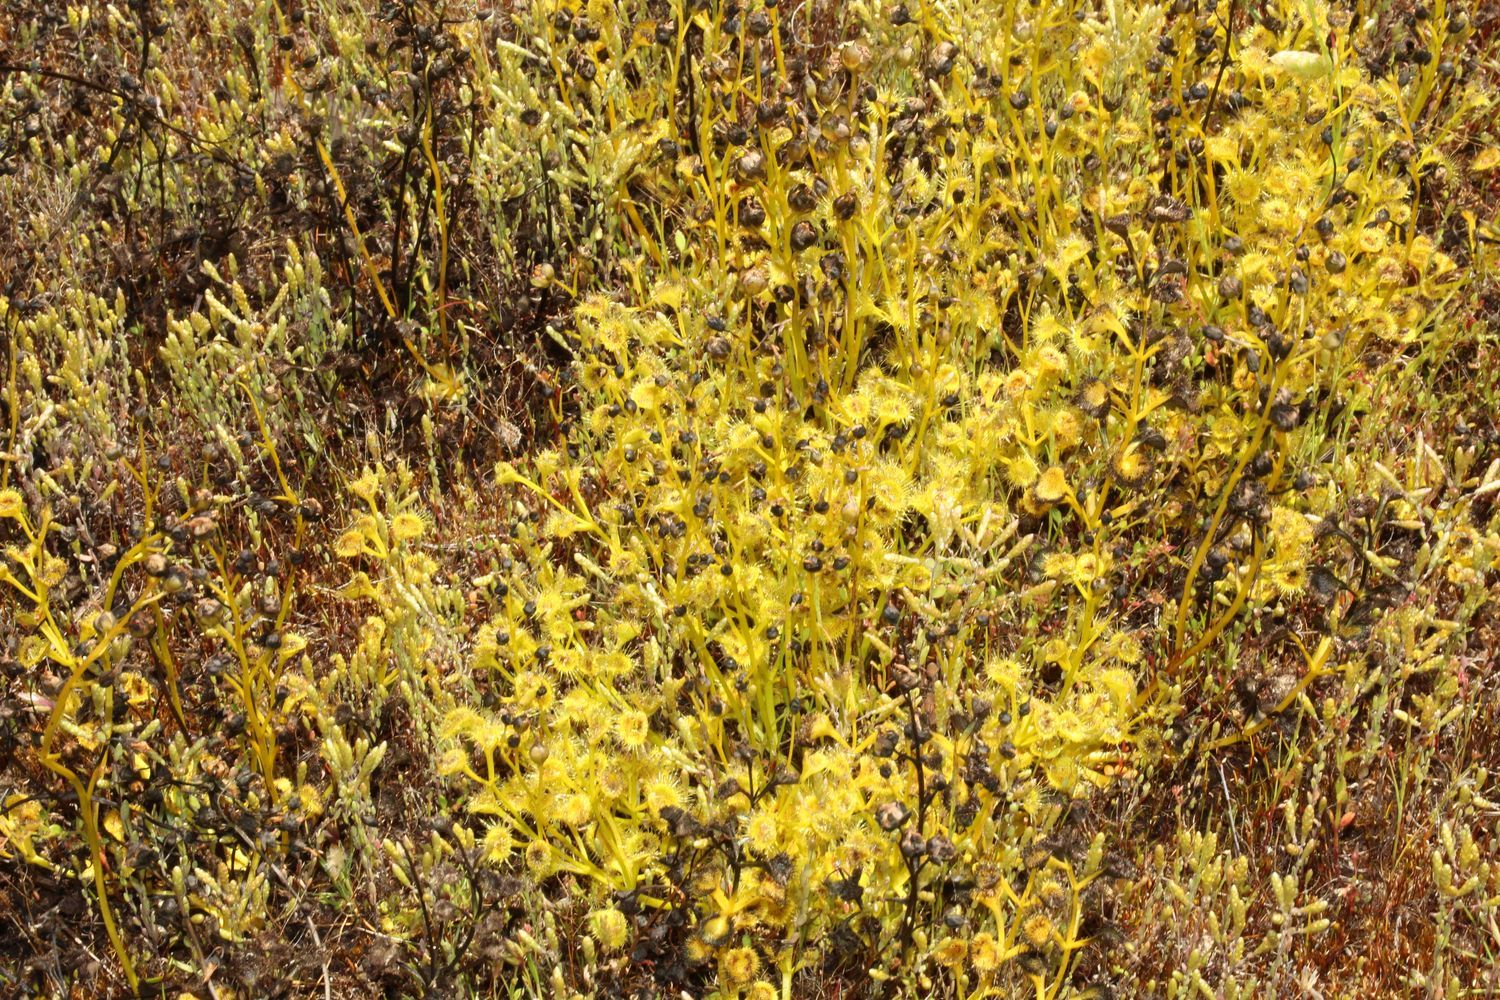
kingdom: Plantae
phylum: Tracheophyta
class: Magnoliopsida
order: Caryophyllales
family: Droseraceae
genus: Drosera
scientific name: Drosera rupicola
